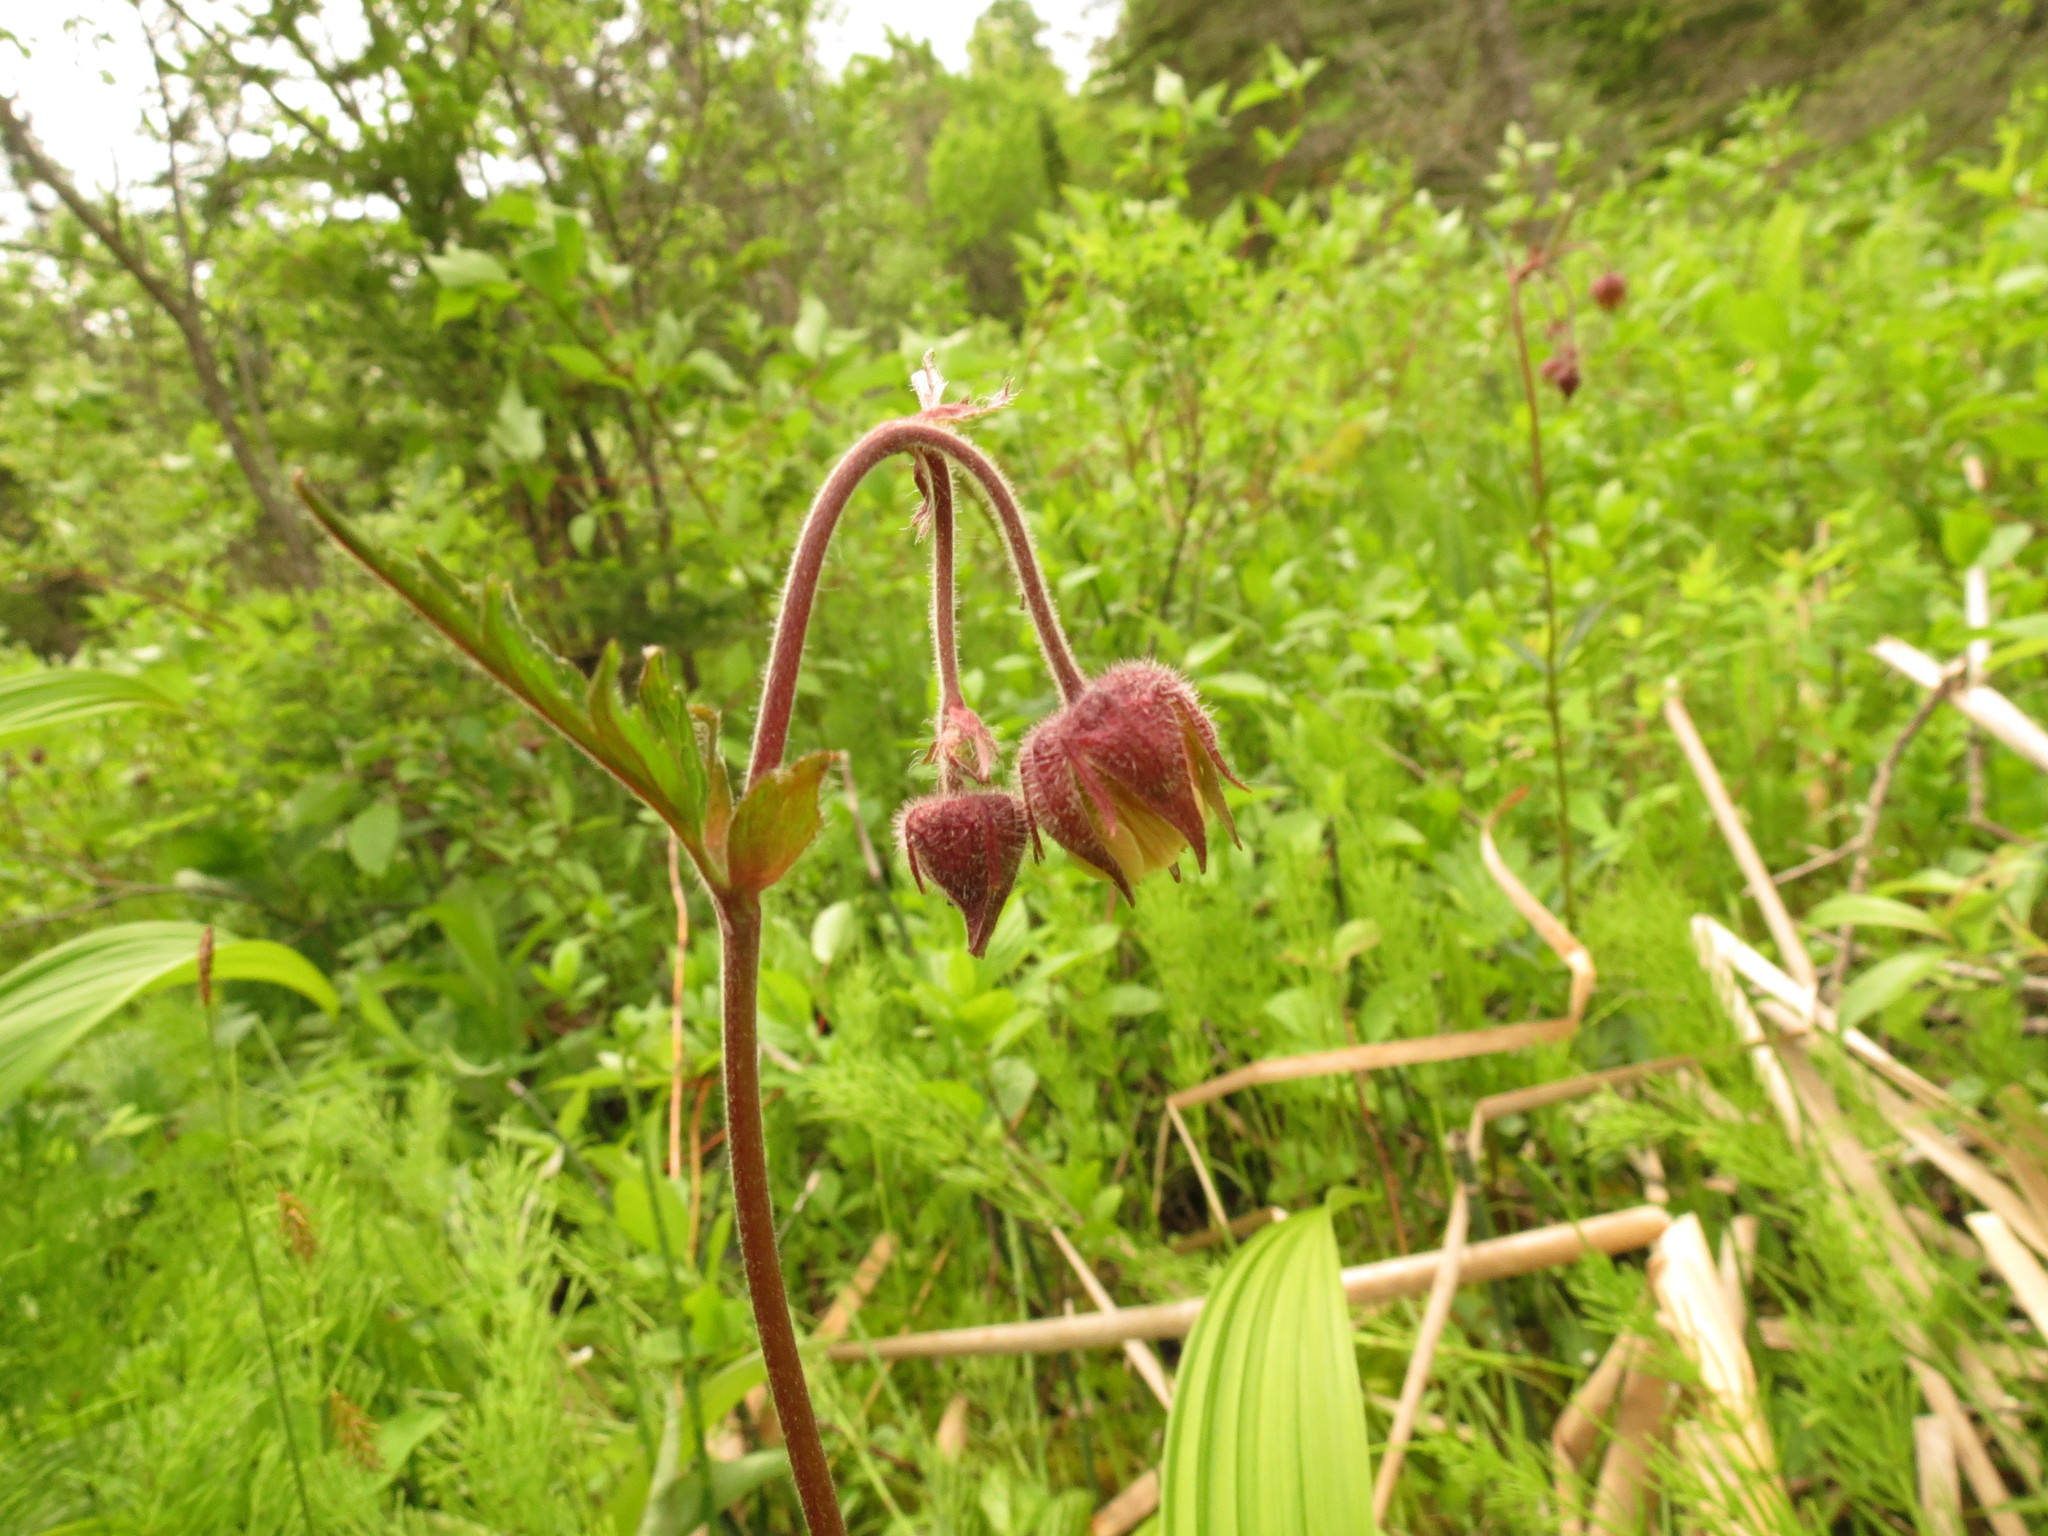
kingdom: Plantae
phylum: Tracheophyta
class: Magnoliopsida
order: Rosales
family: Rosaceae
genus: Geum
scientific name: Geum rivale
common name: Water avens
